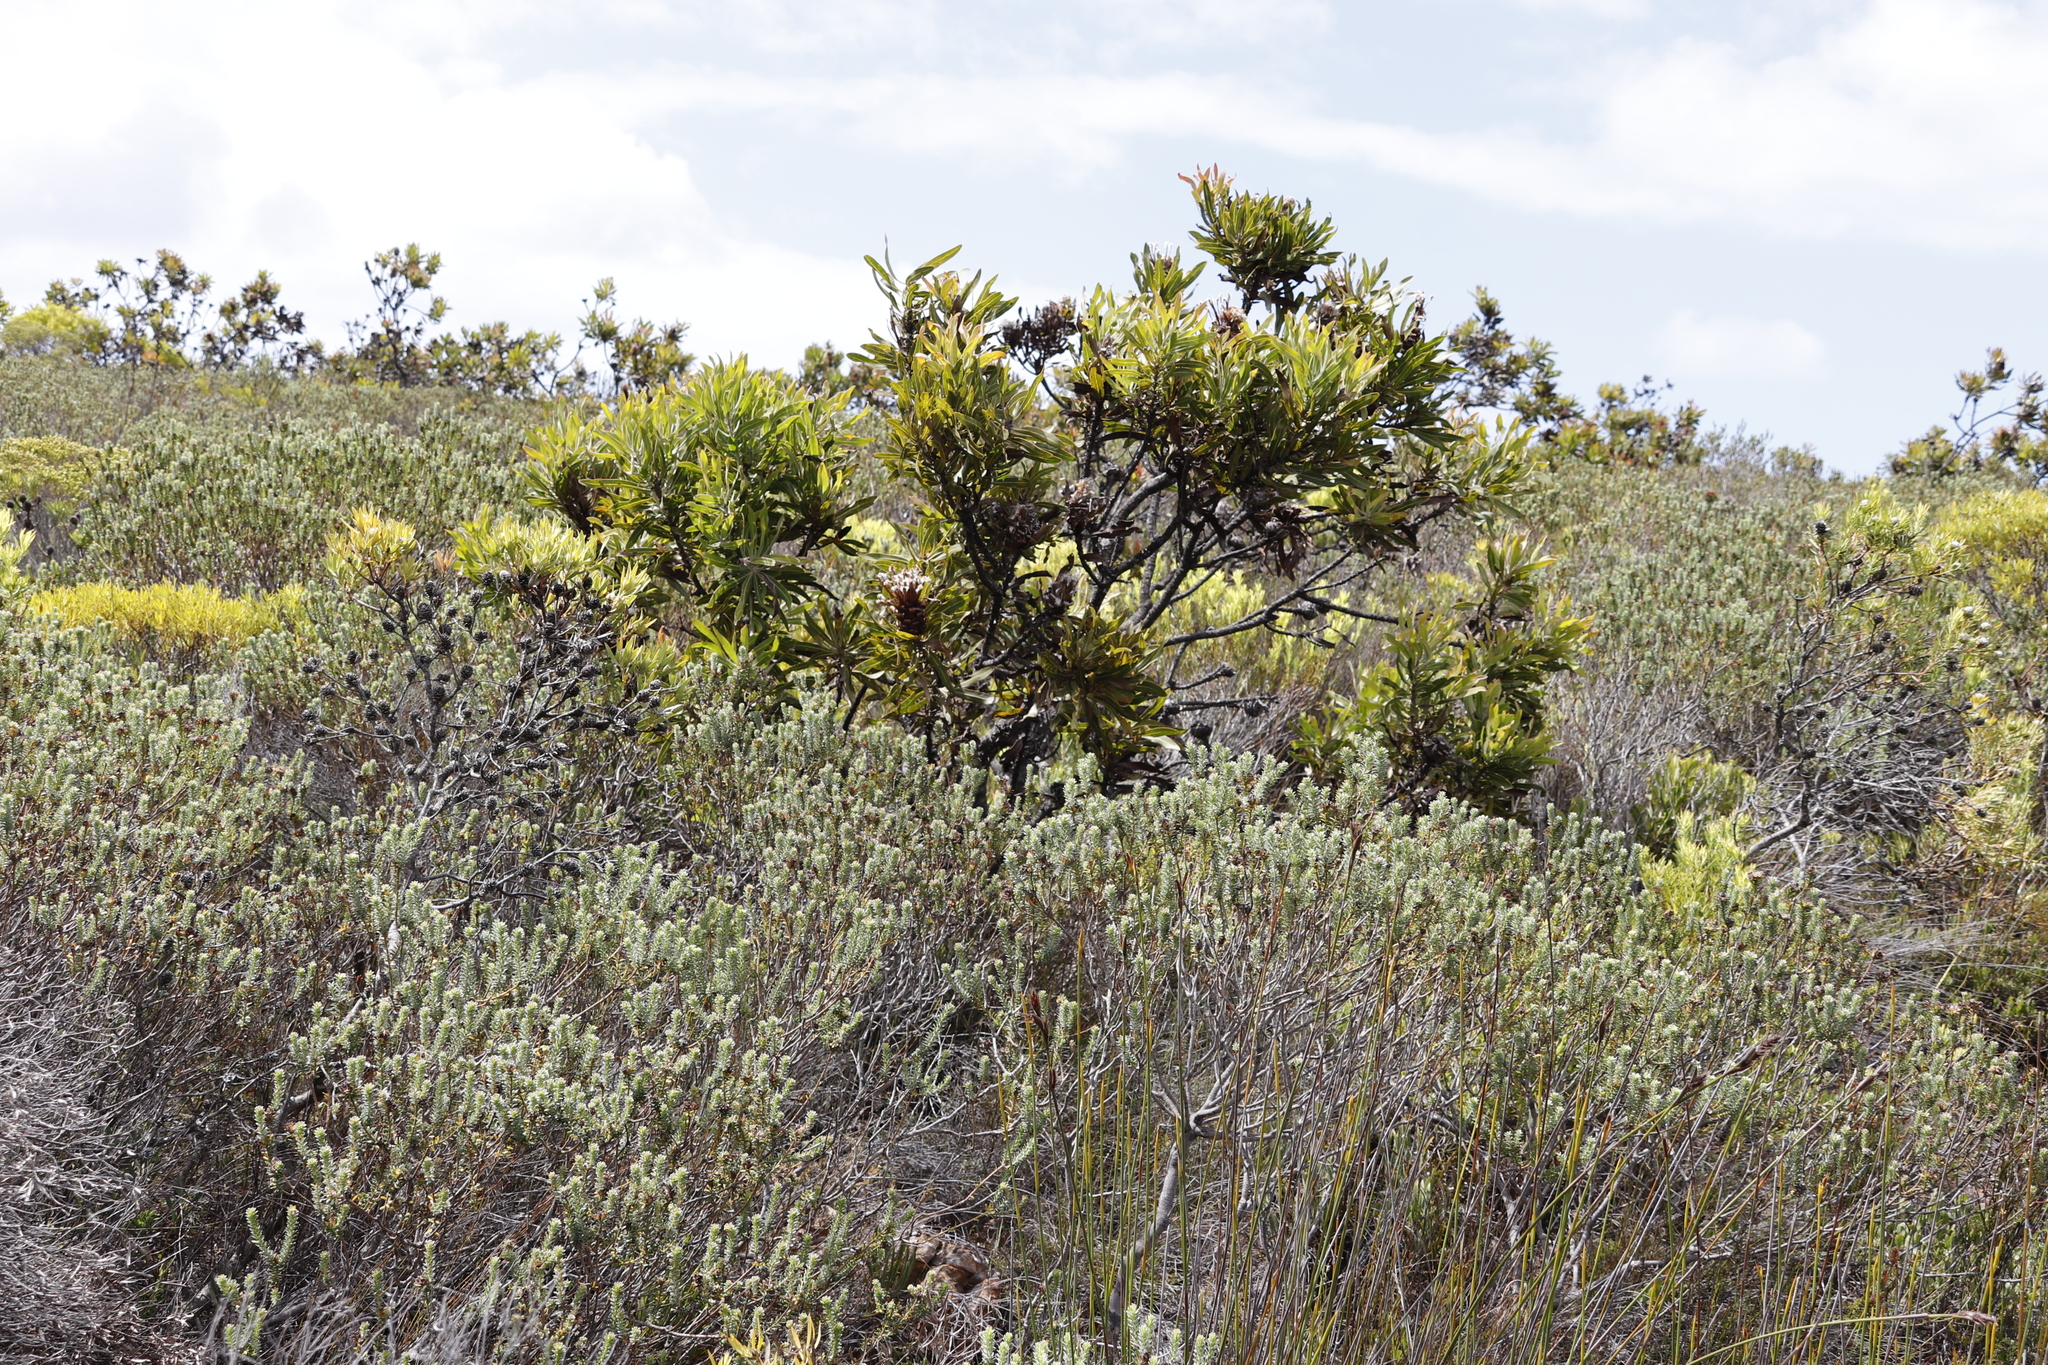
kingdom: Plantae
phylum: Tracheophyta
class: Magnoliopsida
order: Proteales
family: Proteaceae
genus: Protea
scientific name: Protea neriifolia
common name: Blue sugarbush
